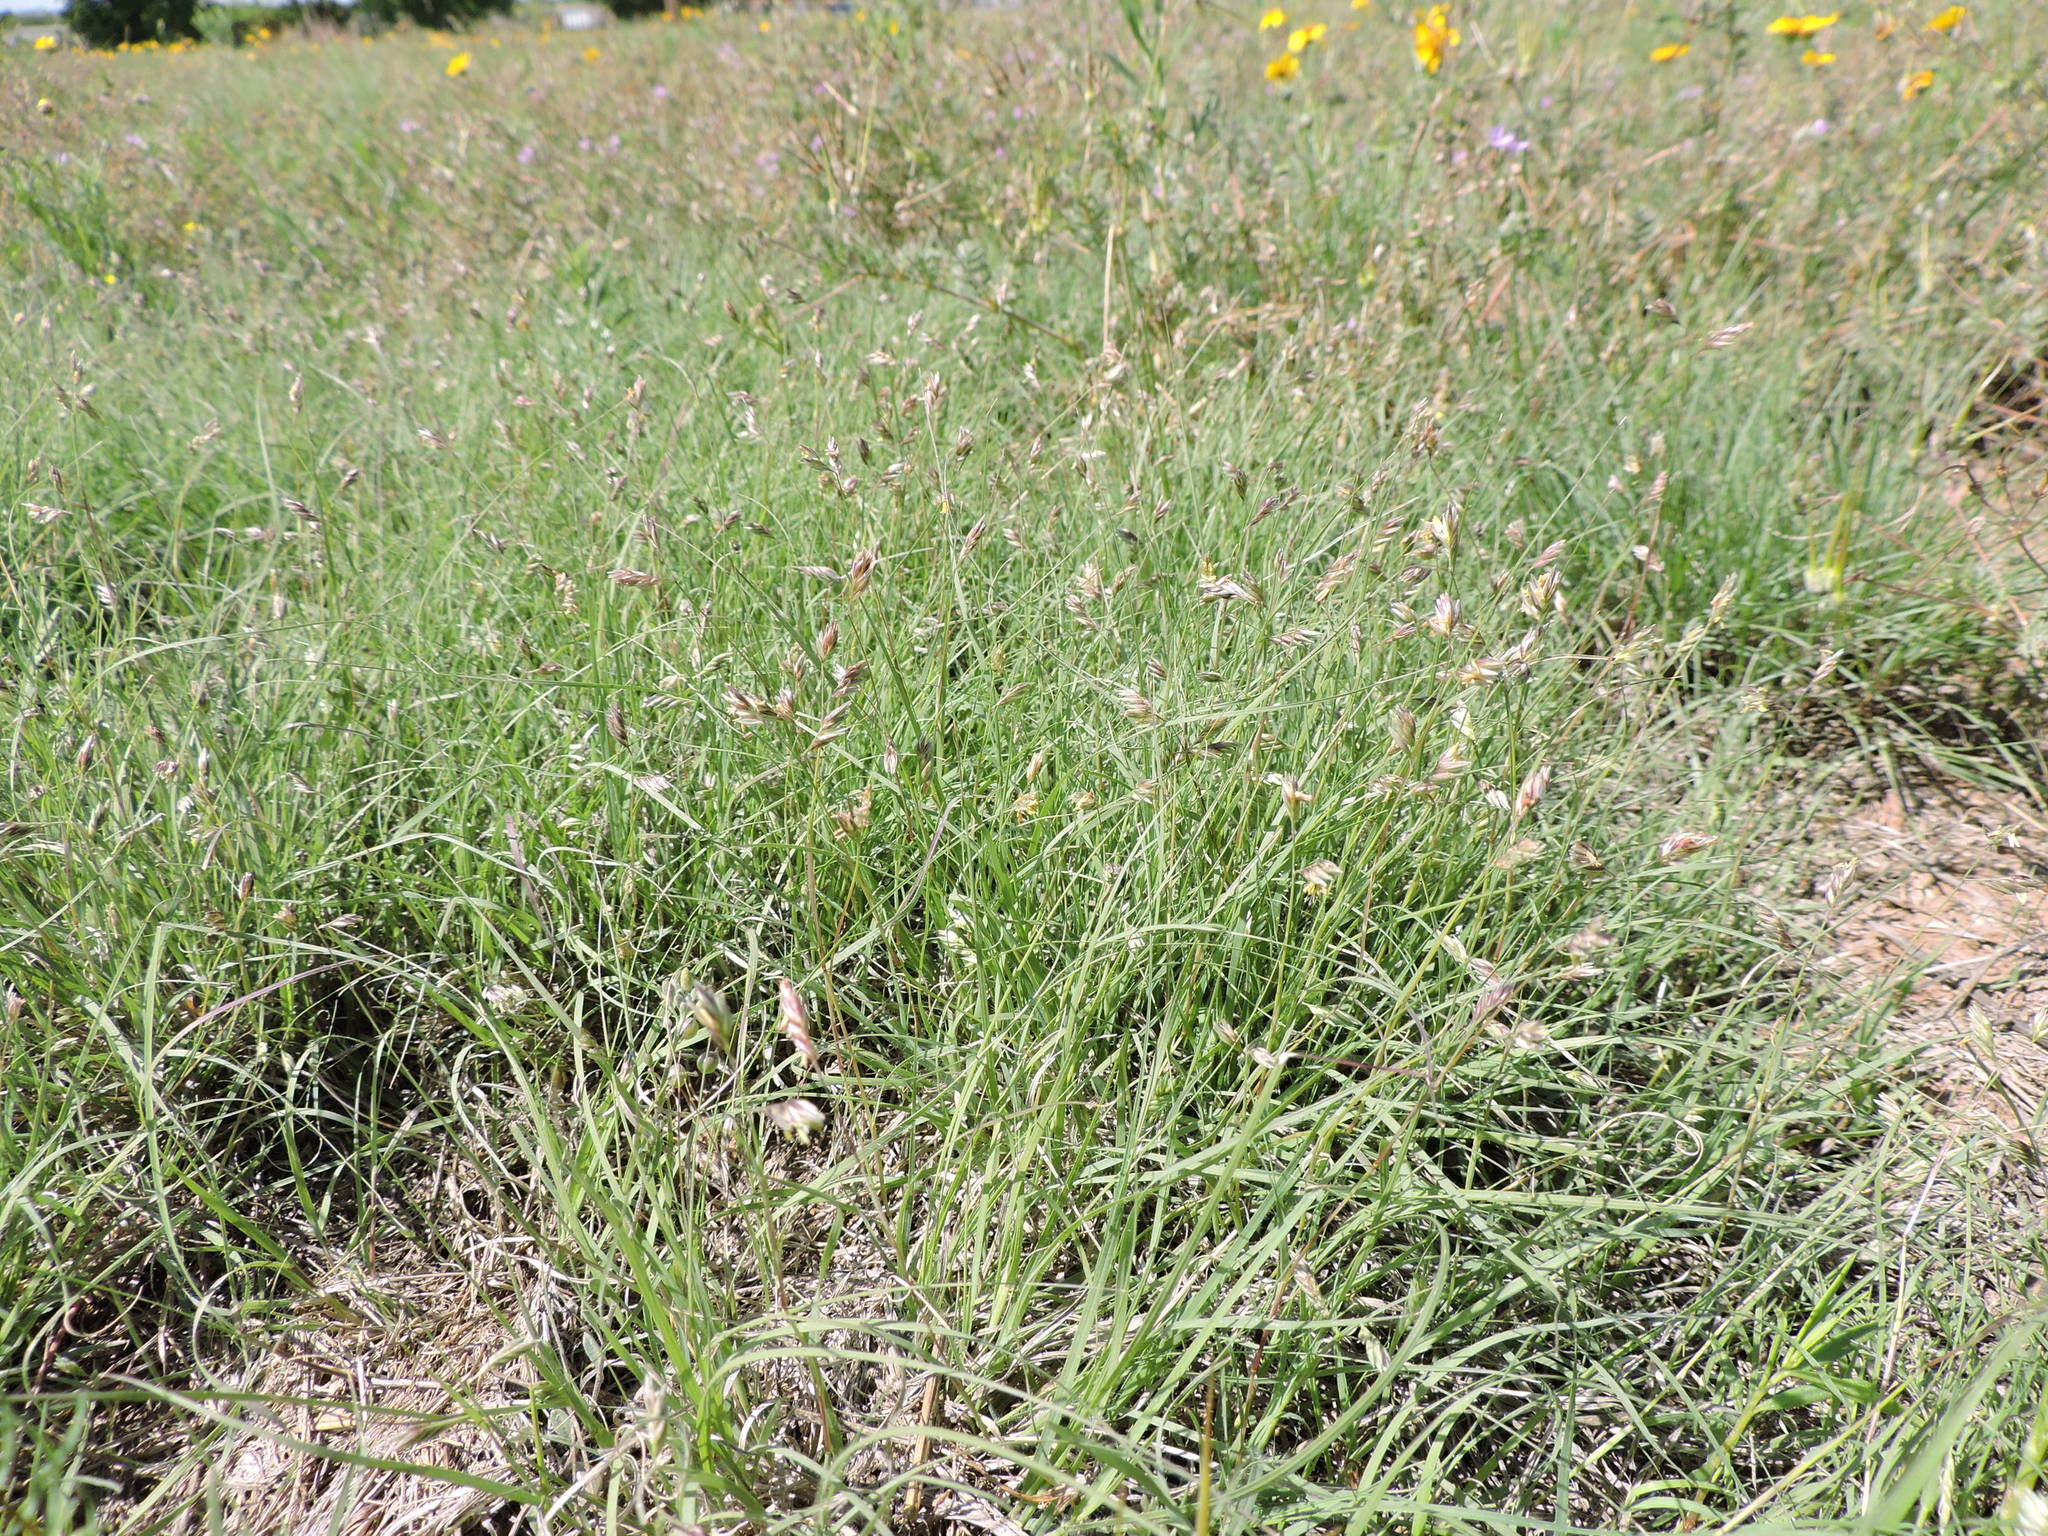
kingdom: Plantae
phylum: Tracheophyta
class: Liliopsida
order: Poales
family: Poaceae
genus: Bouteloua
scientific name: Bouteloua dactyloides
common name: Buffalo grass
